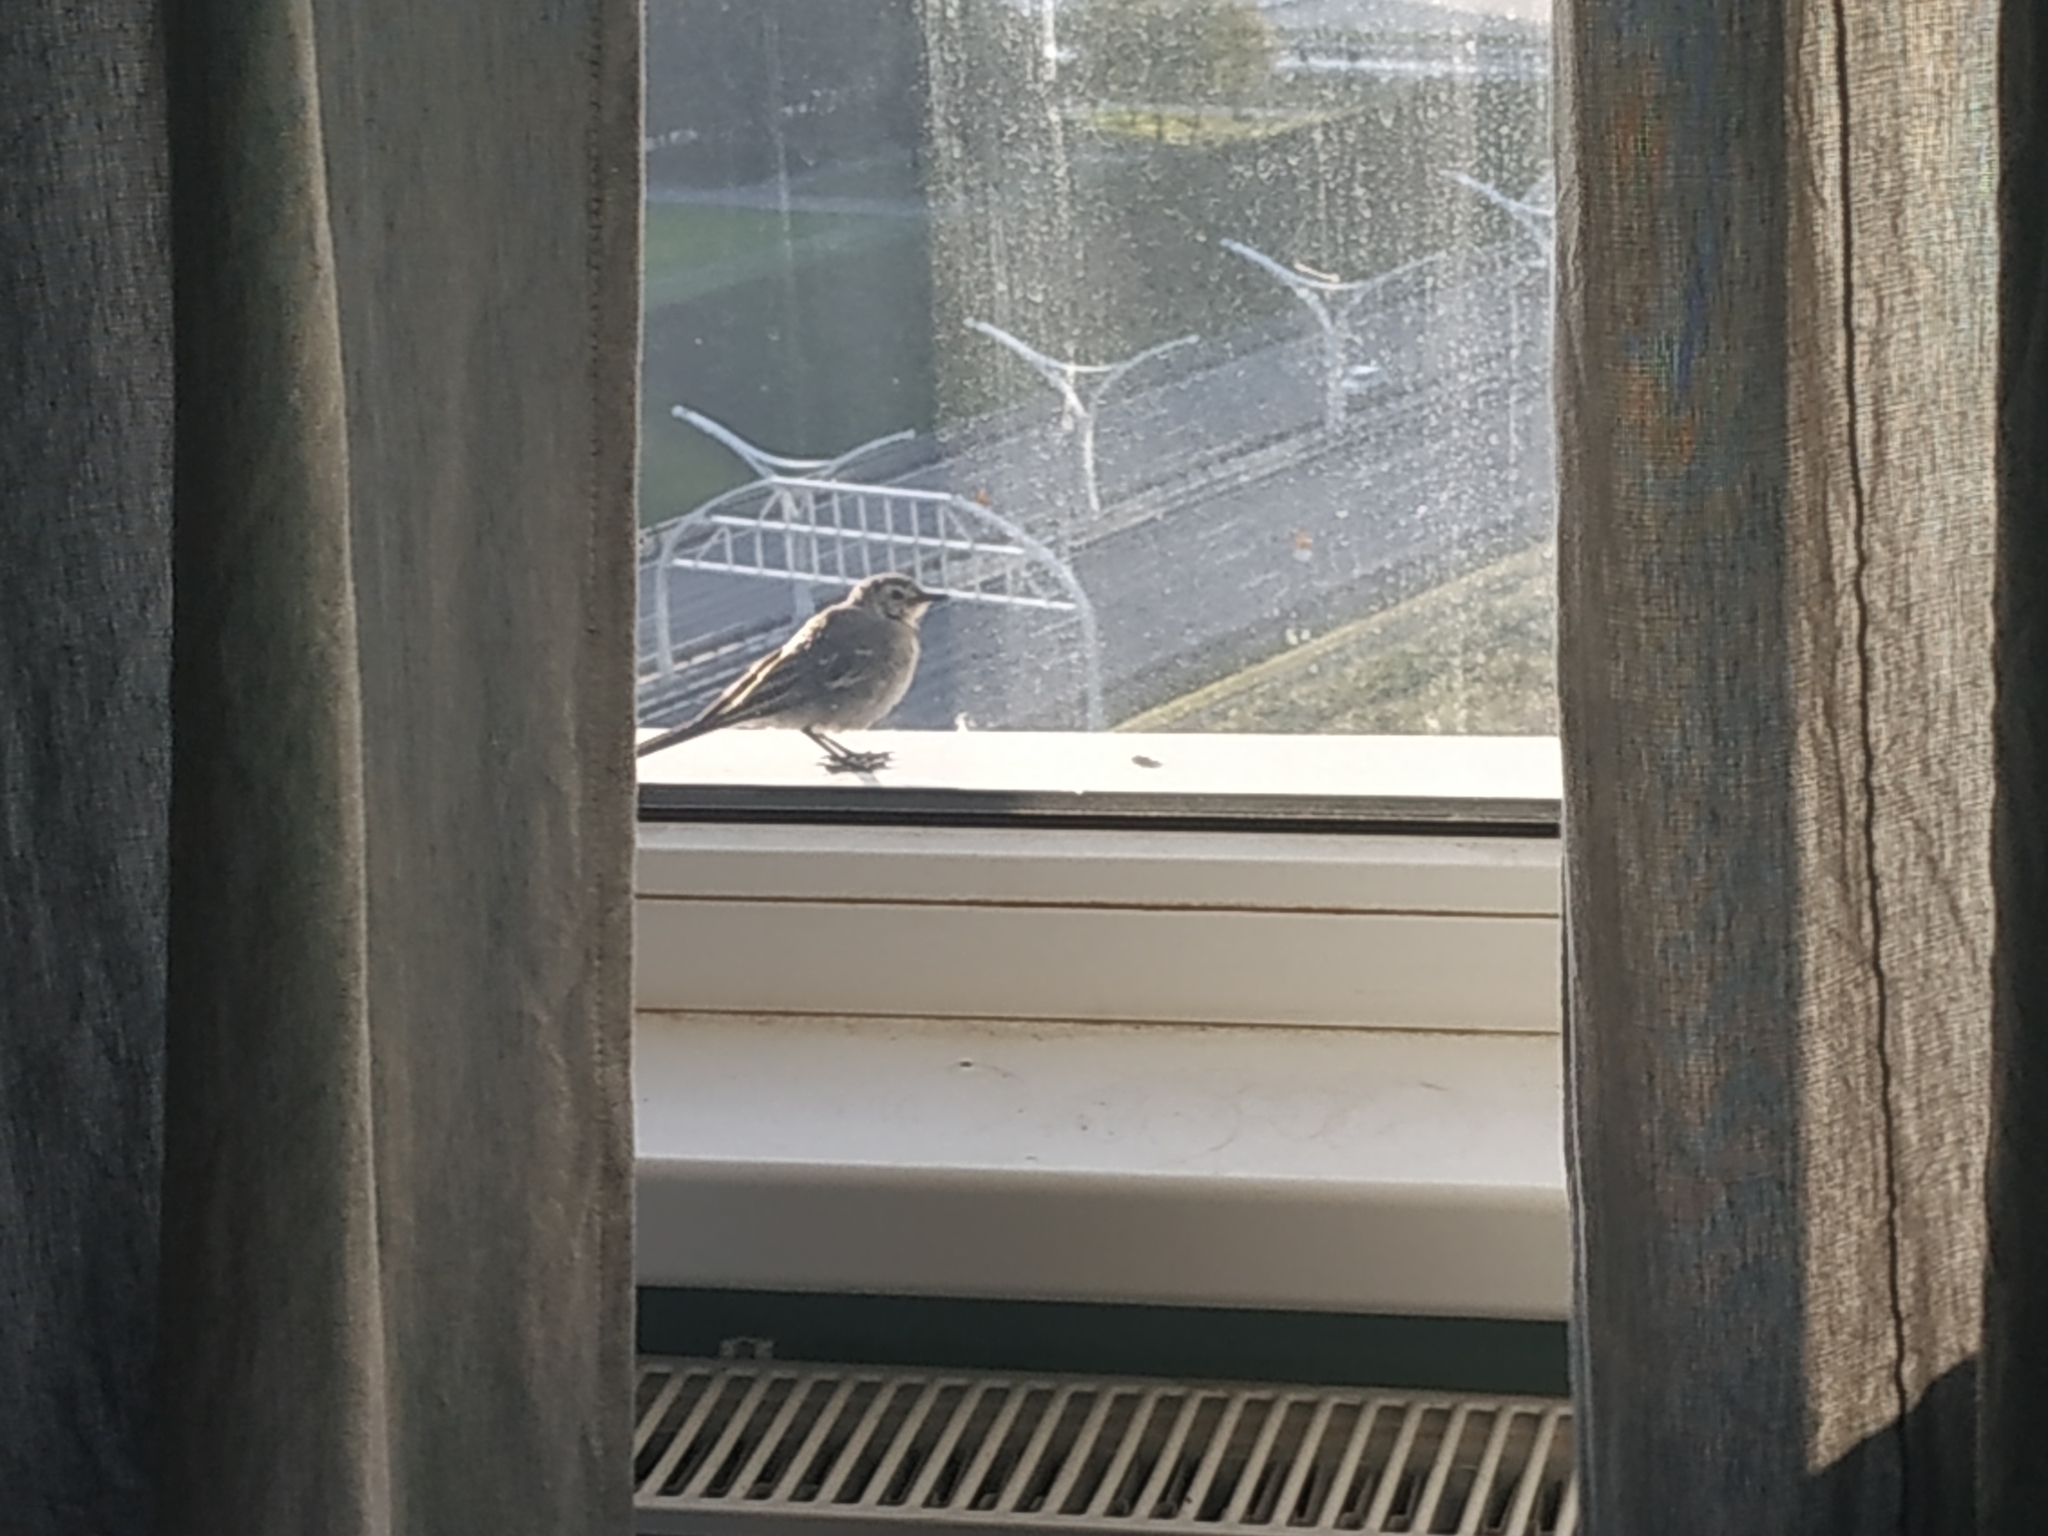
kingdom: Animalia
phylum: Chordata
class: Aves
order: Passeriformes
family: Motacillidae
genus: Motacilla
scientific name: Motacilla alba
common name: White wagtail
